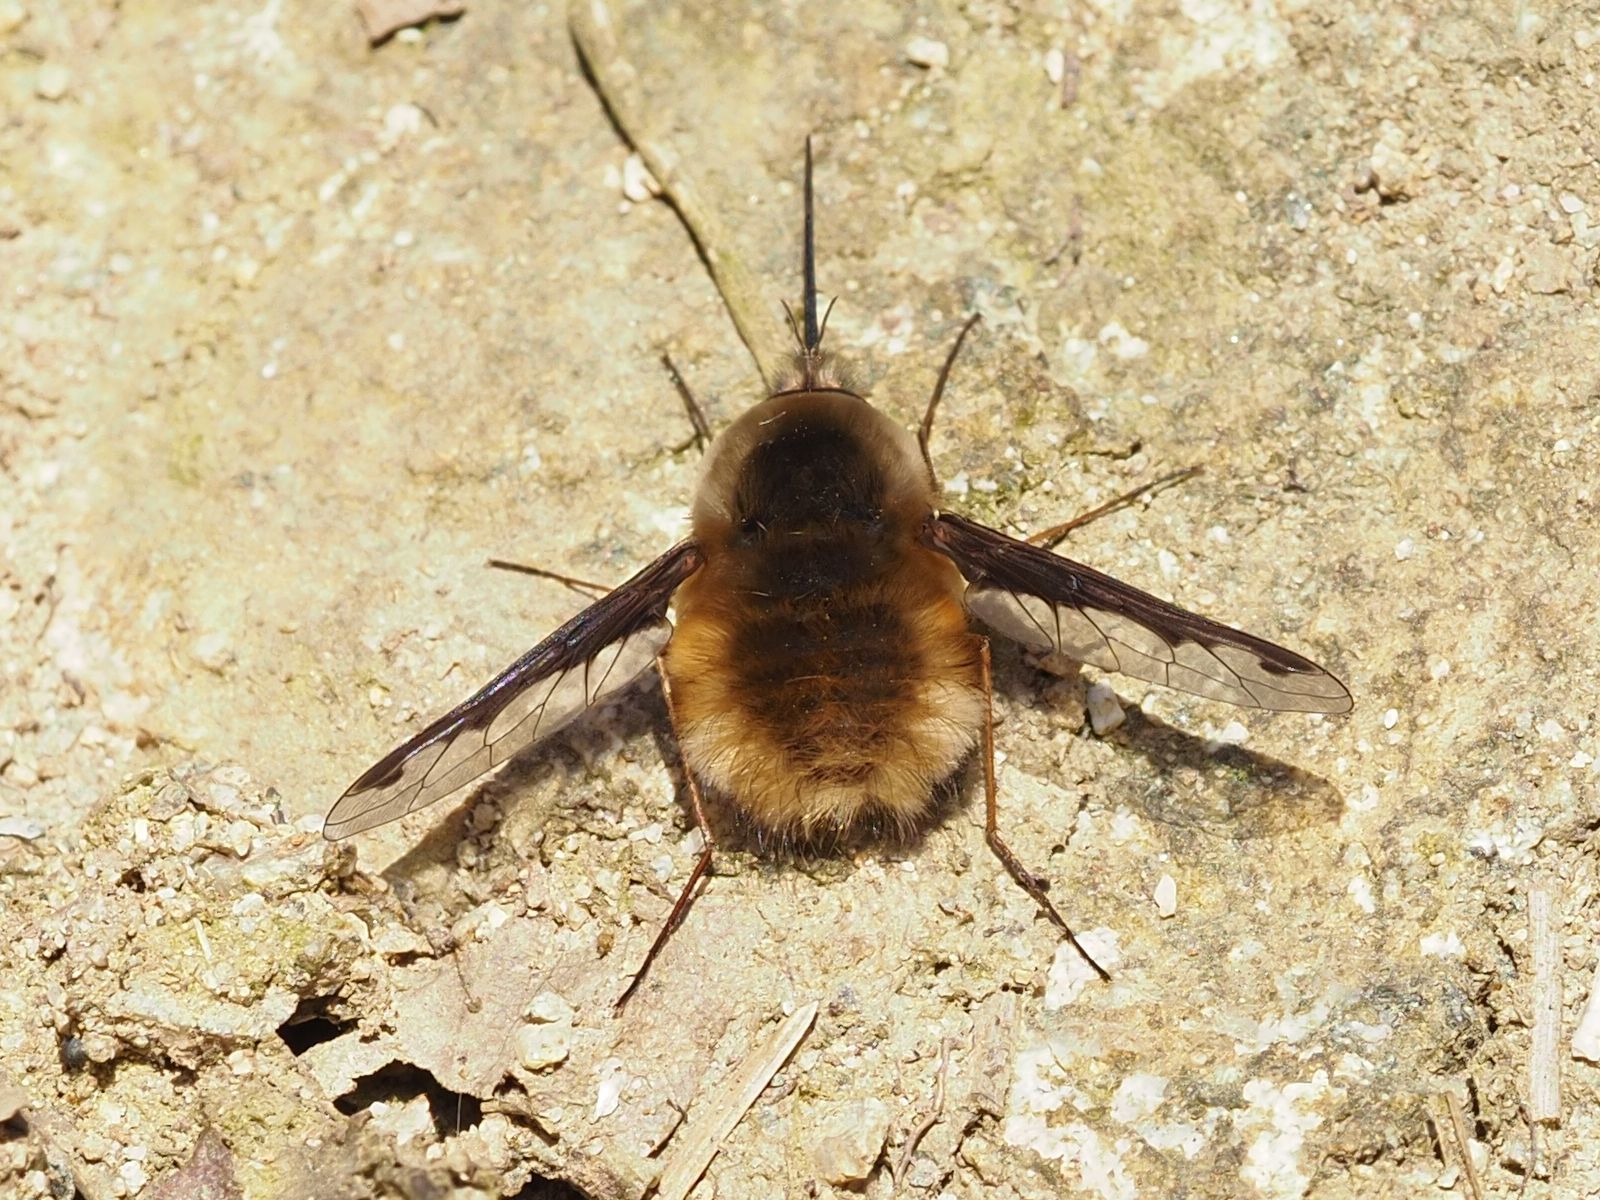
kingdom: Animalia
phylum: Arthropoda
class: Insecta
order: Diptera
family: Bombyliidae
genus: Bombylius
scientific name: Bombylius major
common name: Bee fly
